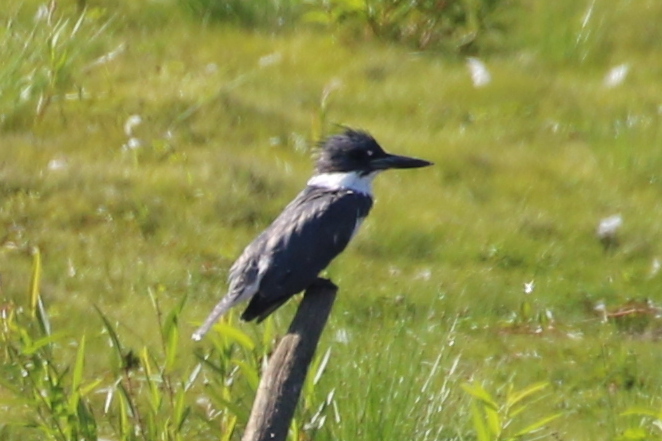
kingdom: Animalia
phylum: Chordata
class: Aves
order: Coraciiformes
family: Alcedinidae
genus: Megaceryle
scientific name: Megaceryle alcyon
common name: Belted kingfisher
